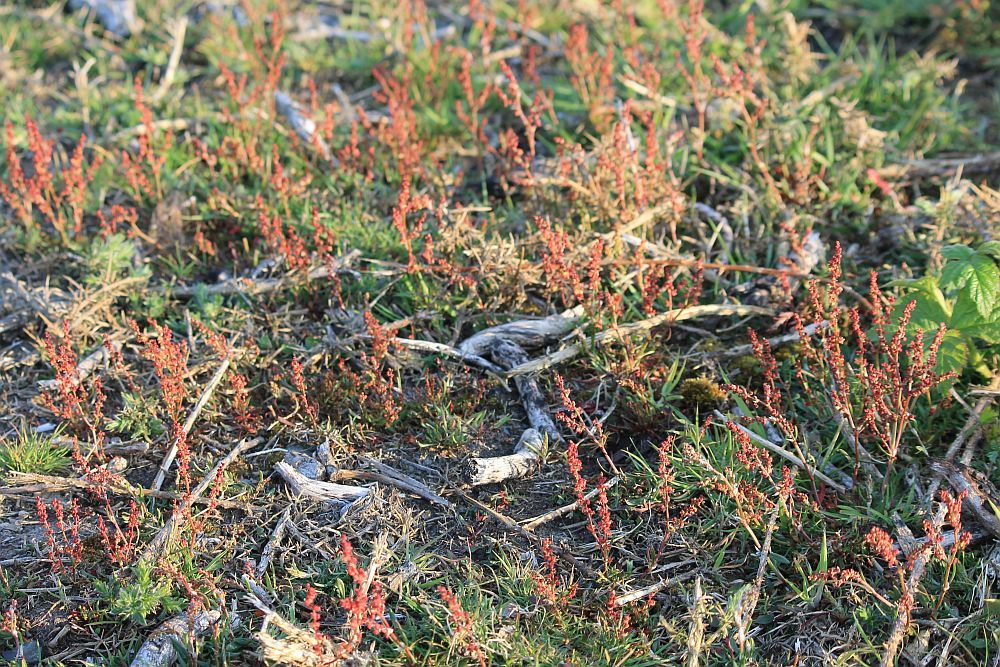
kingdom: Plantae
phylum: Tracheophyta
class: Magnoliopsida
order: Caryophyllales
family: Polygonaceae
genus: Rumex
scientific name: Rumex acetosella
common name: Common sheep sorrel
